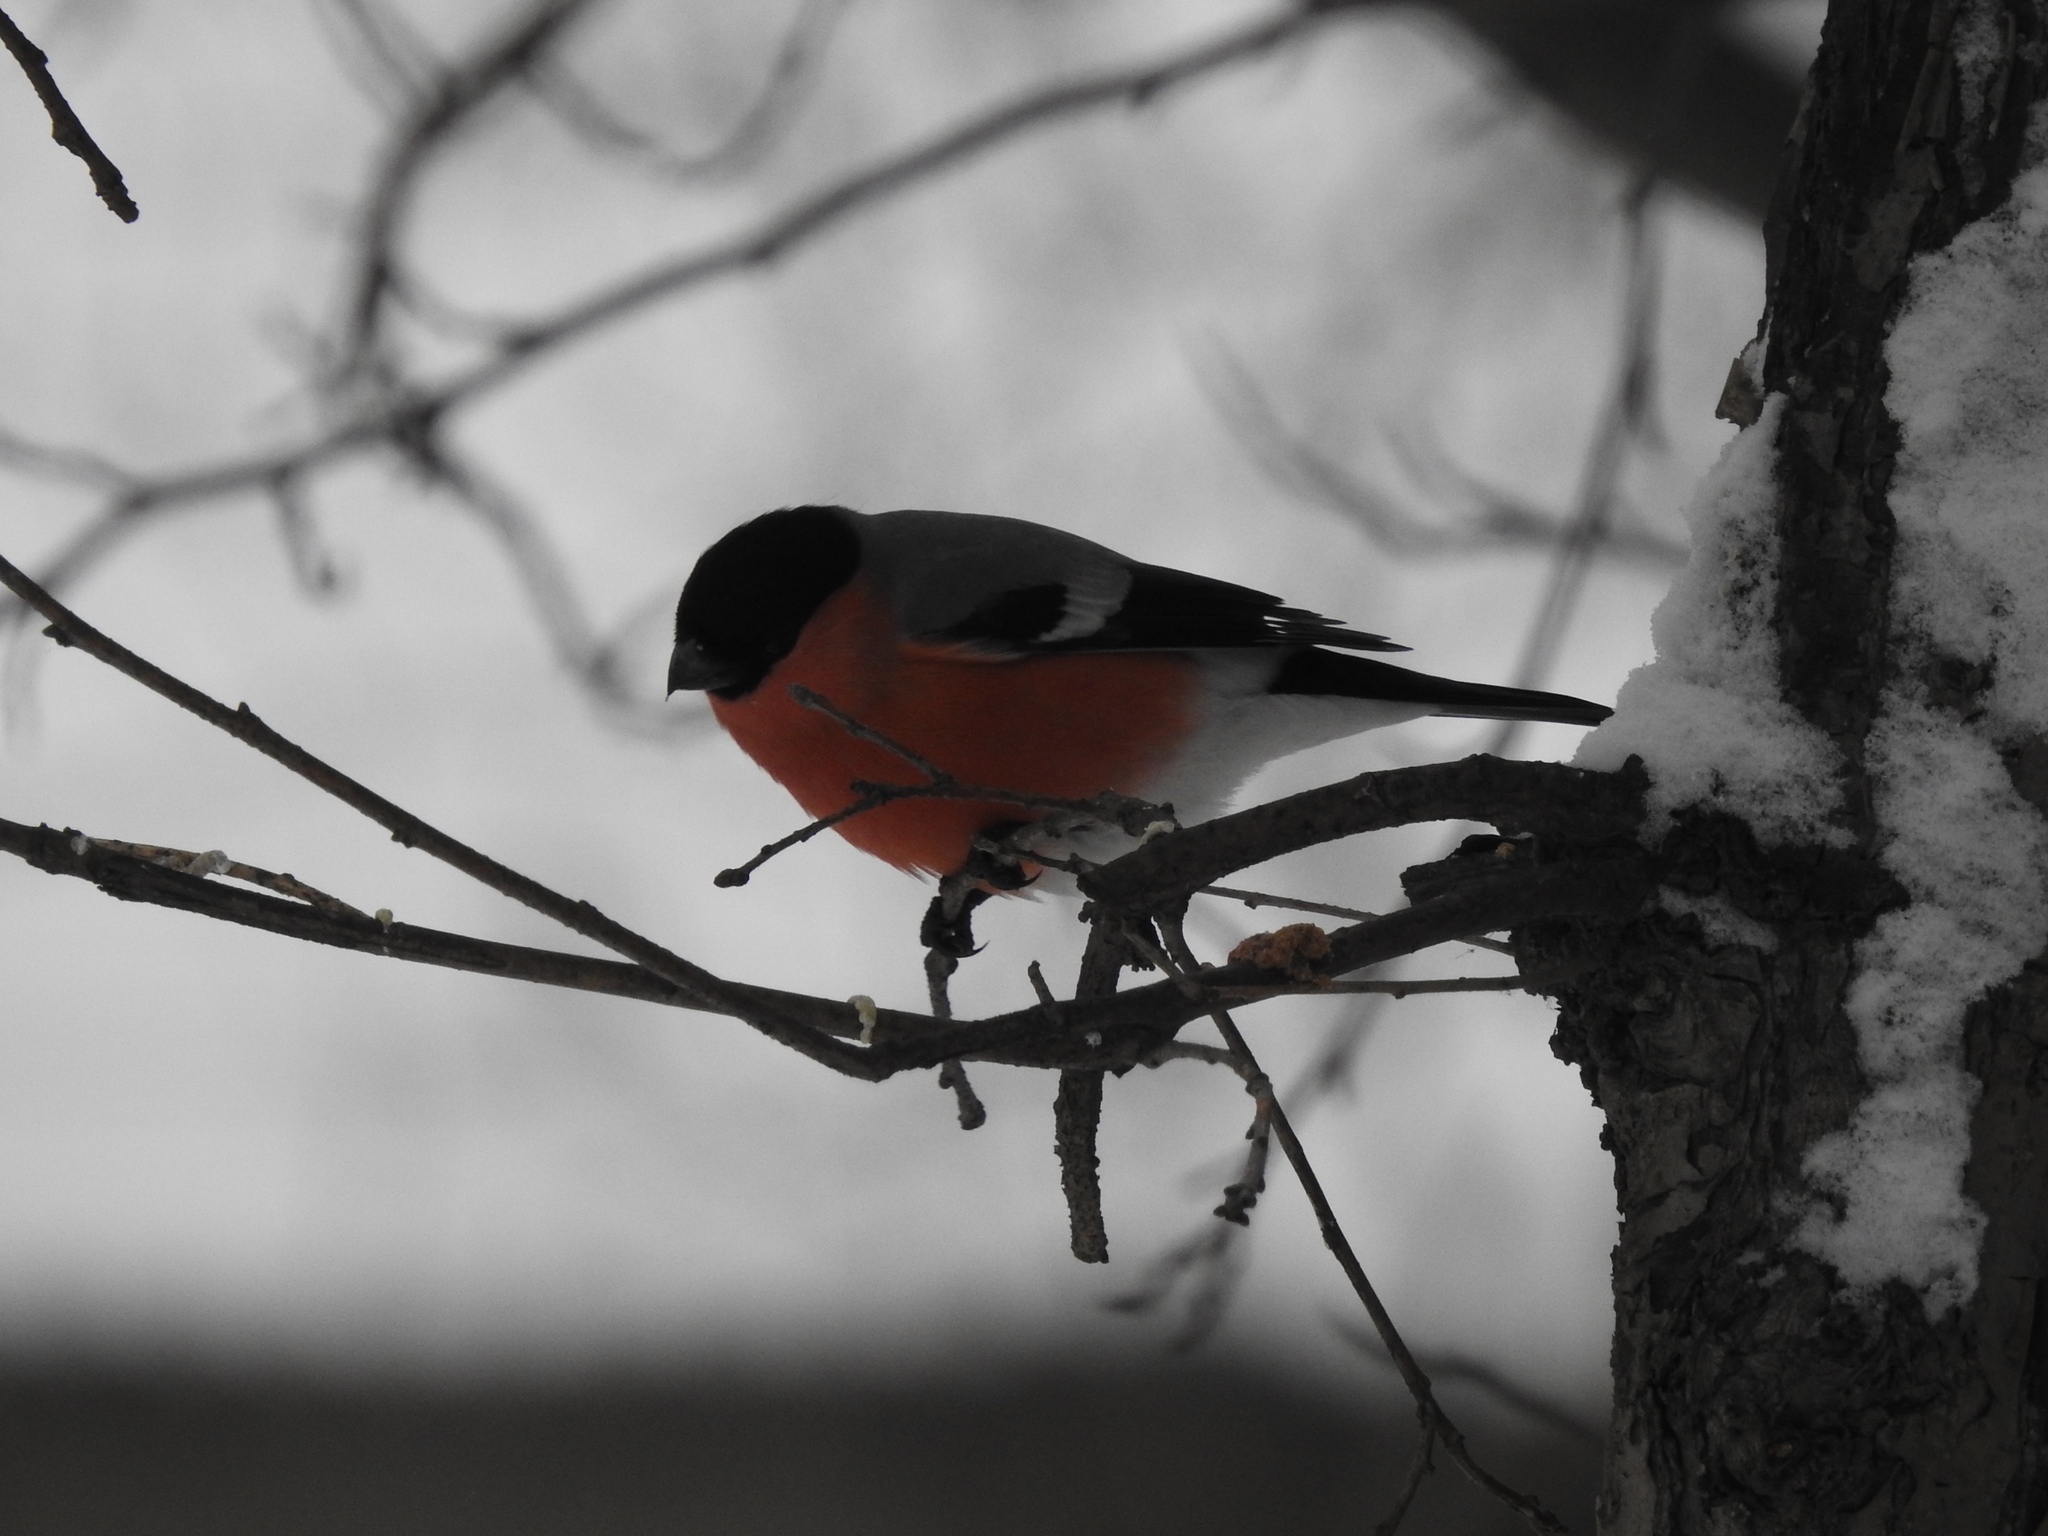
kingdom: Animalia
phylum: Chordata
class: Aves
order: Passeriformes
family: Fringillidae
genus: Pyrrhula
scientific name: Pyrrhula pyrrhula
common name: Eurasian bullfinch
